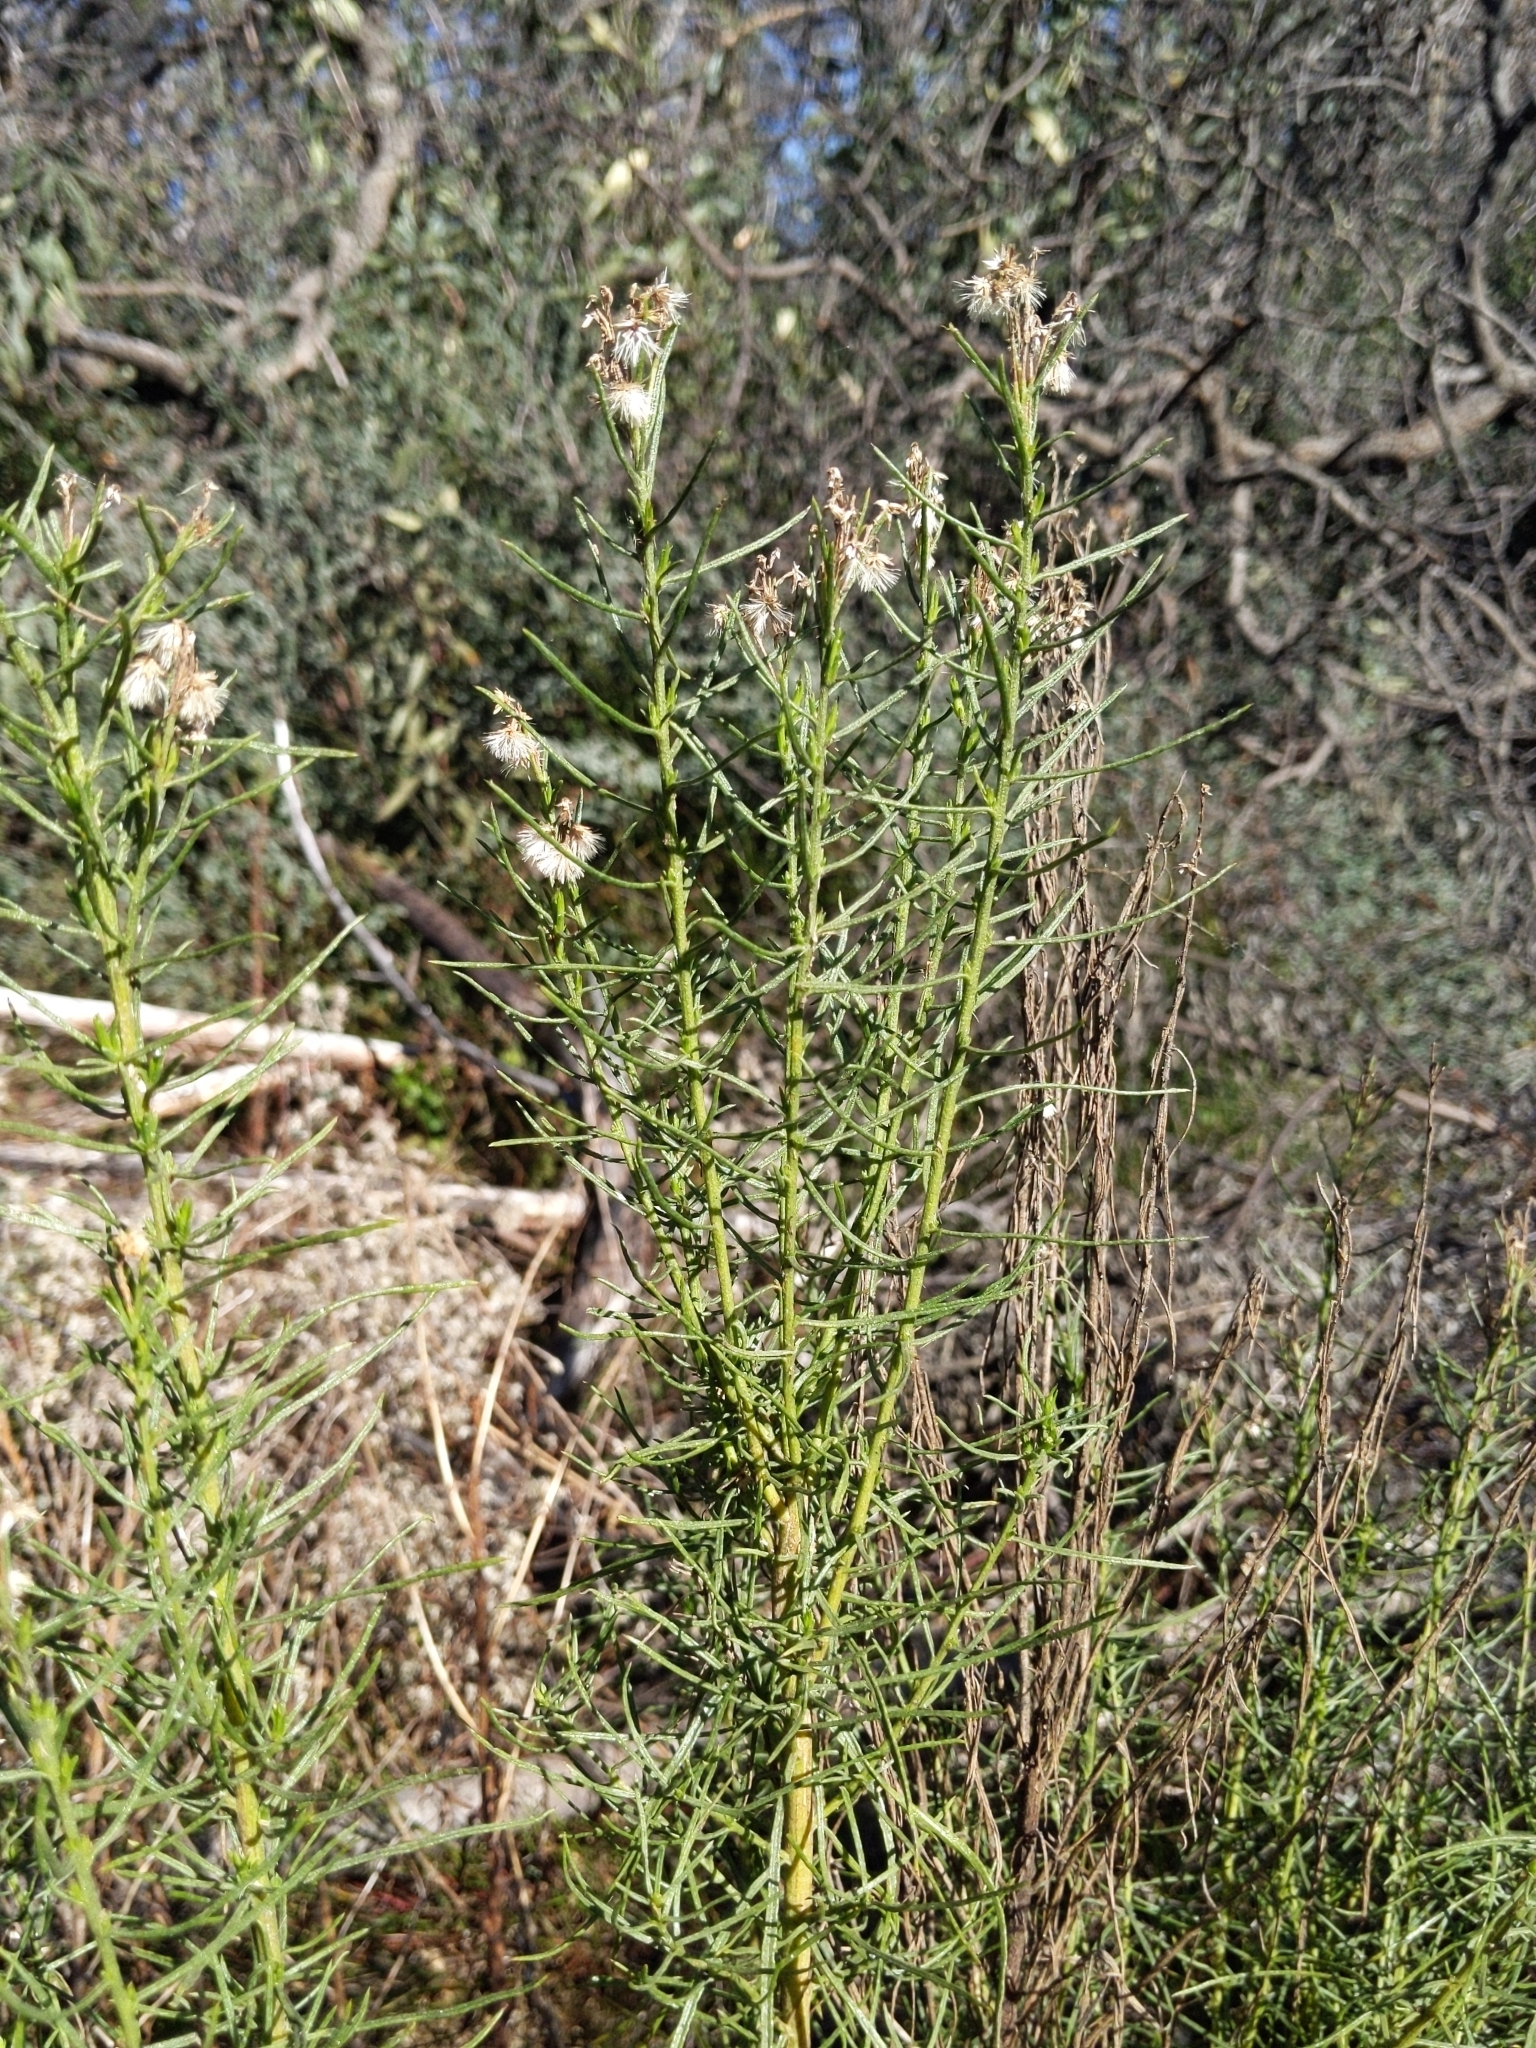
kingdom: Plantae
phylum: Tracheophyta
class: Magnoliopsida
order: Asterales
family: Asteraceae
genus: Ericameria
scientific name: Ericameria arborescens
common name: Goldenfleece
